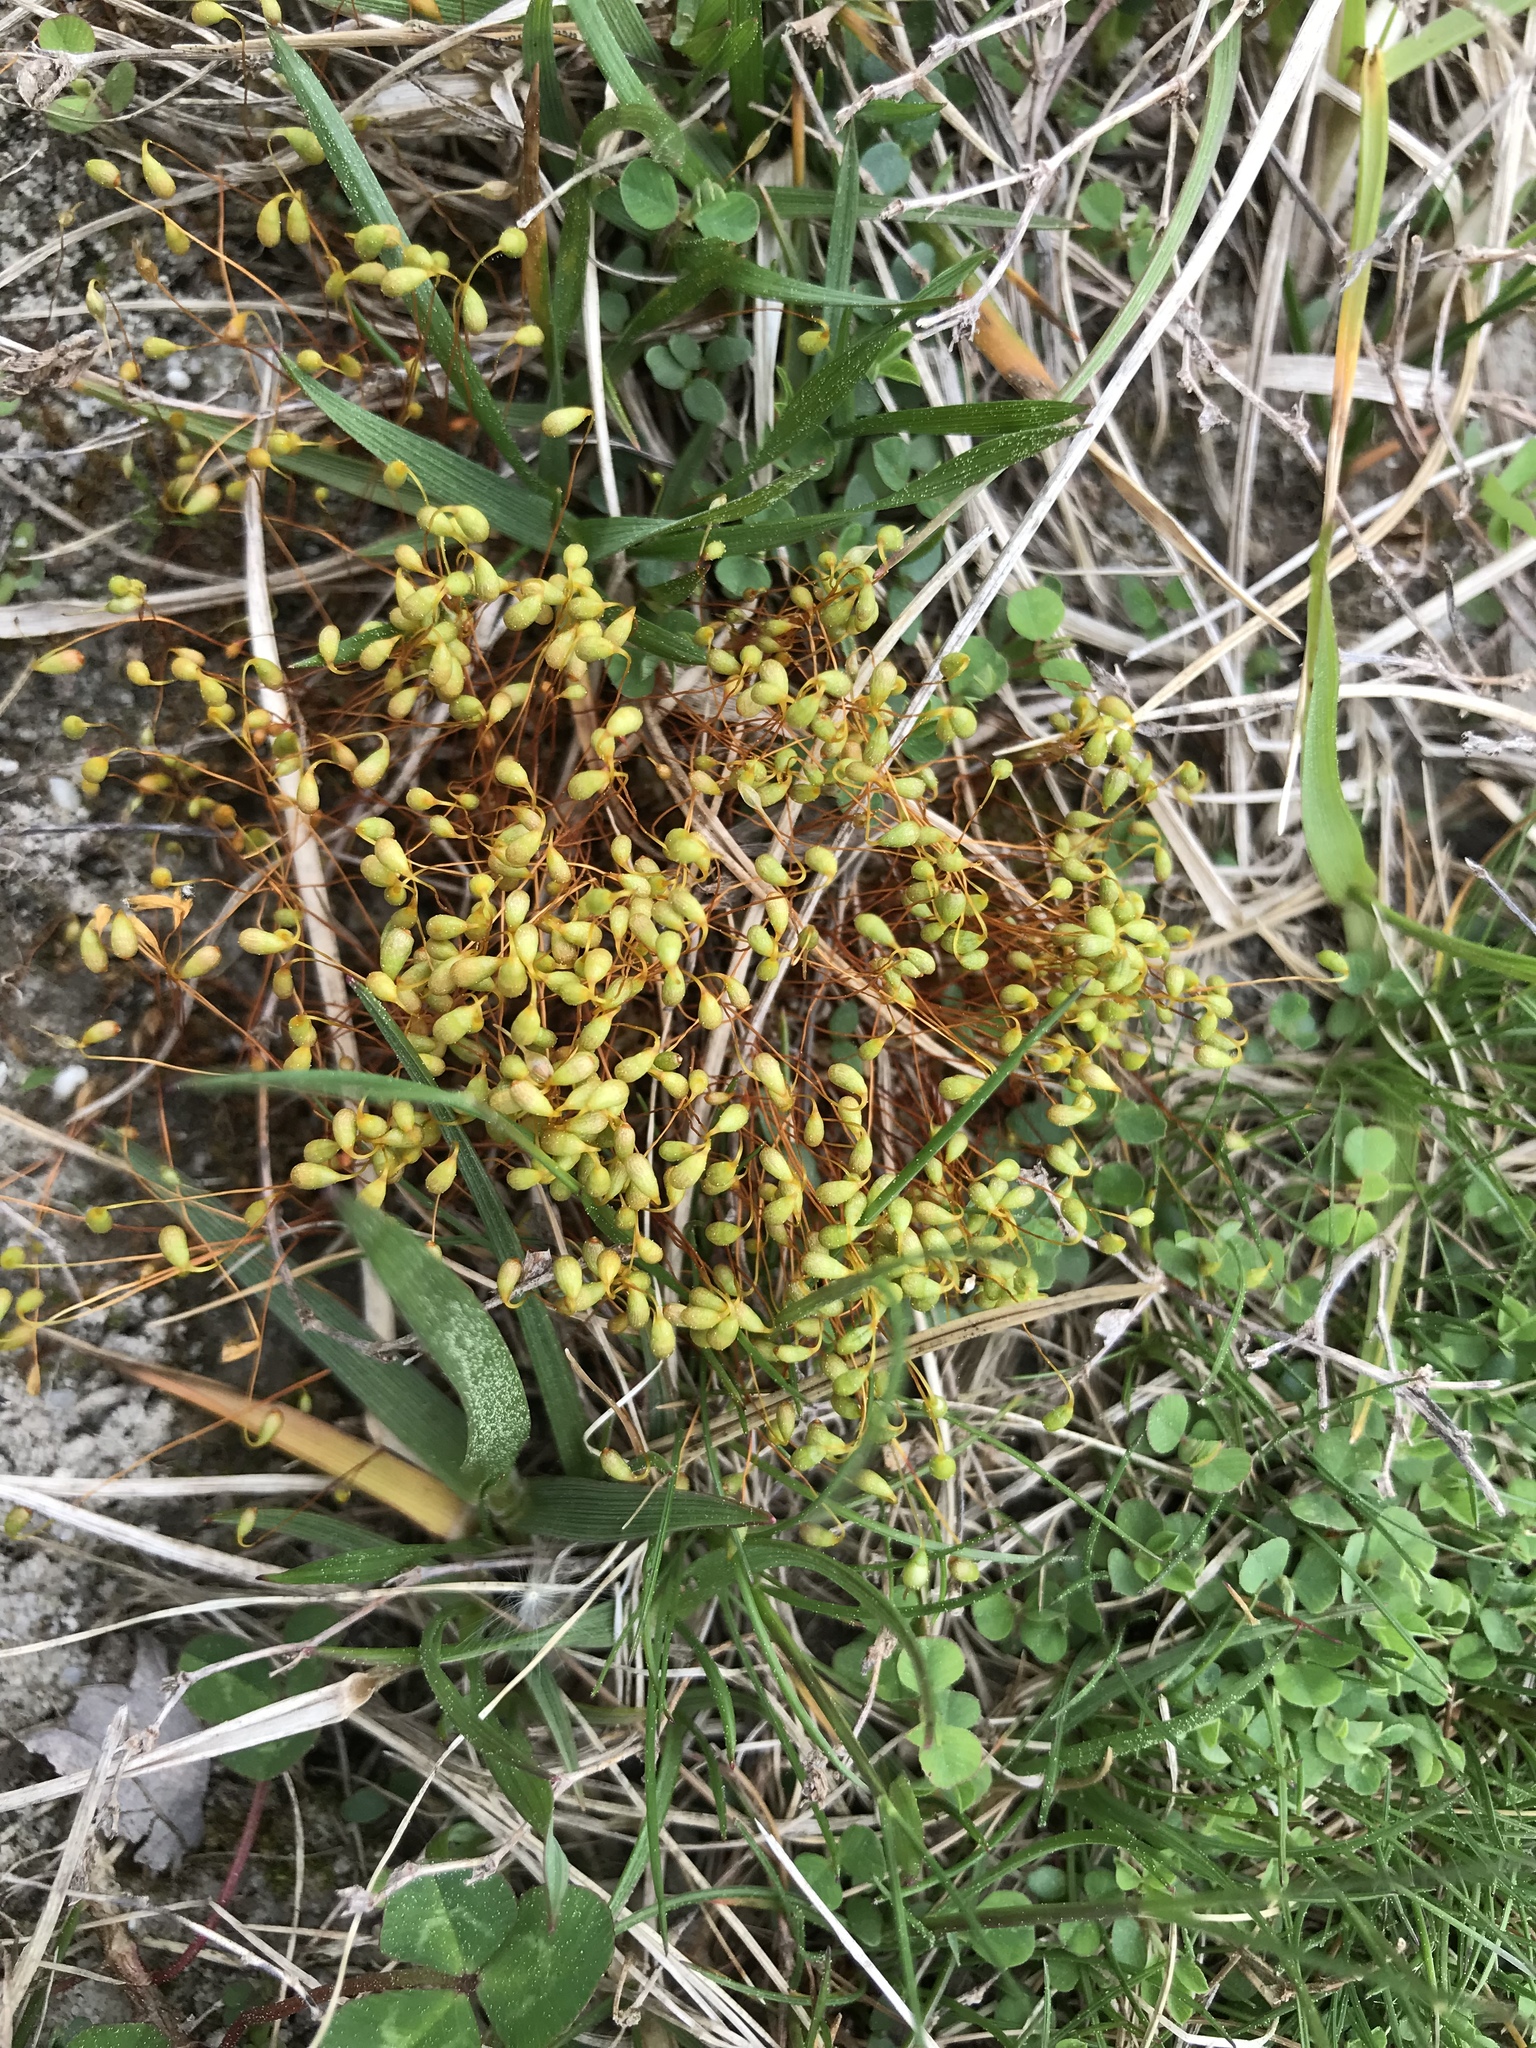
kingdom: Plantae
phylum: Bryophyta
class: Bryopsida
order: Funariales
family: Funariaceae
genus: Funaria
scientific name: Funaria hygrometrica
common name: Common cord moss
